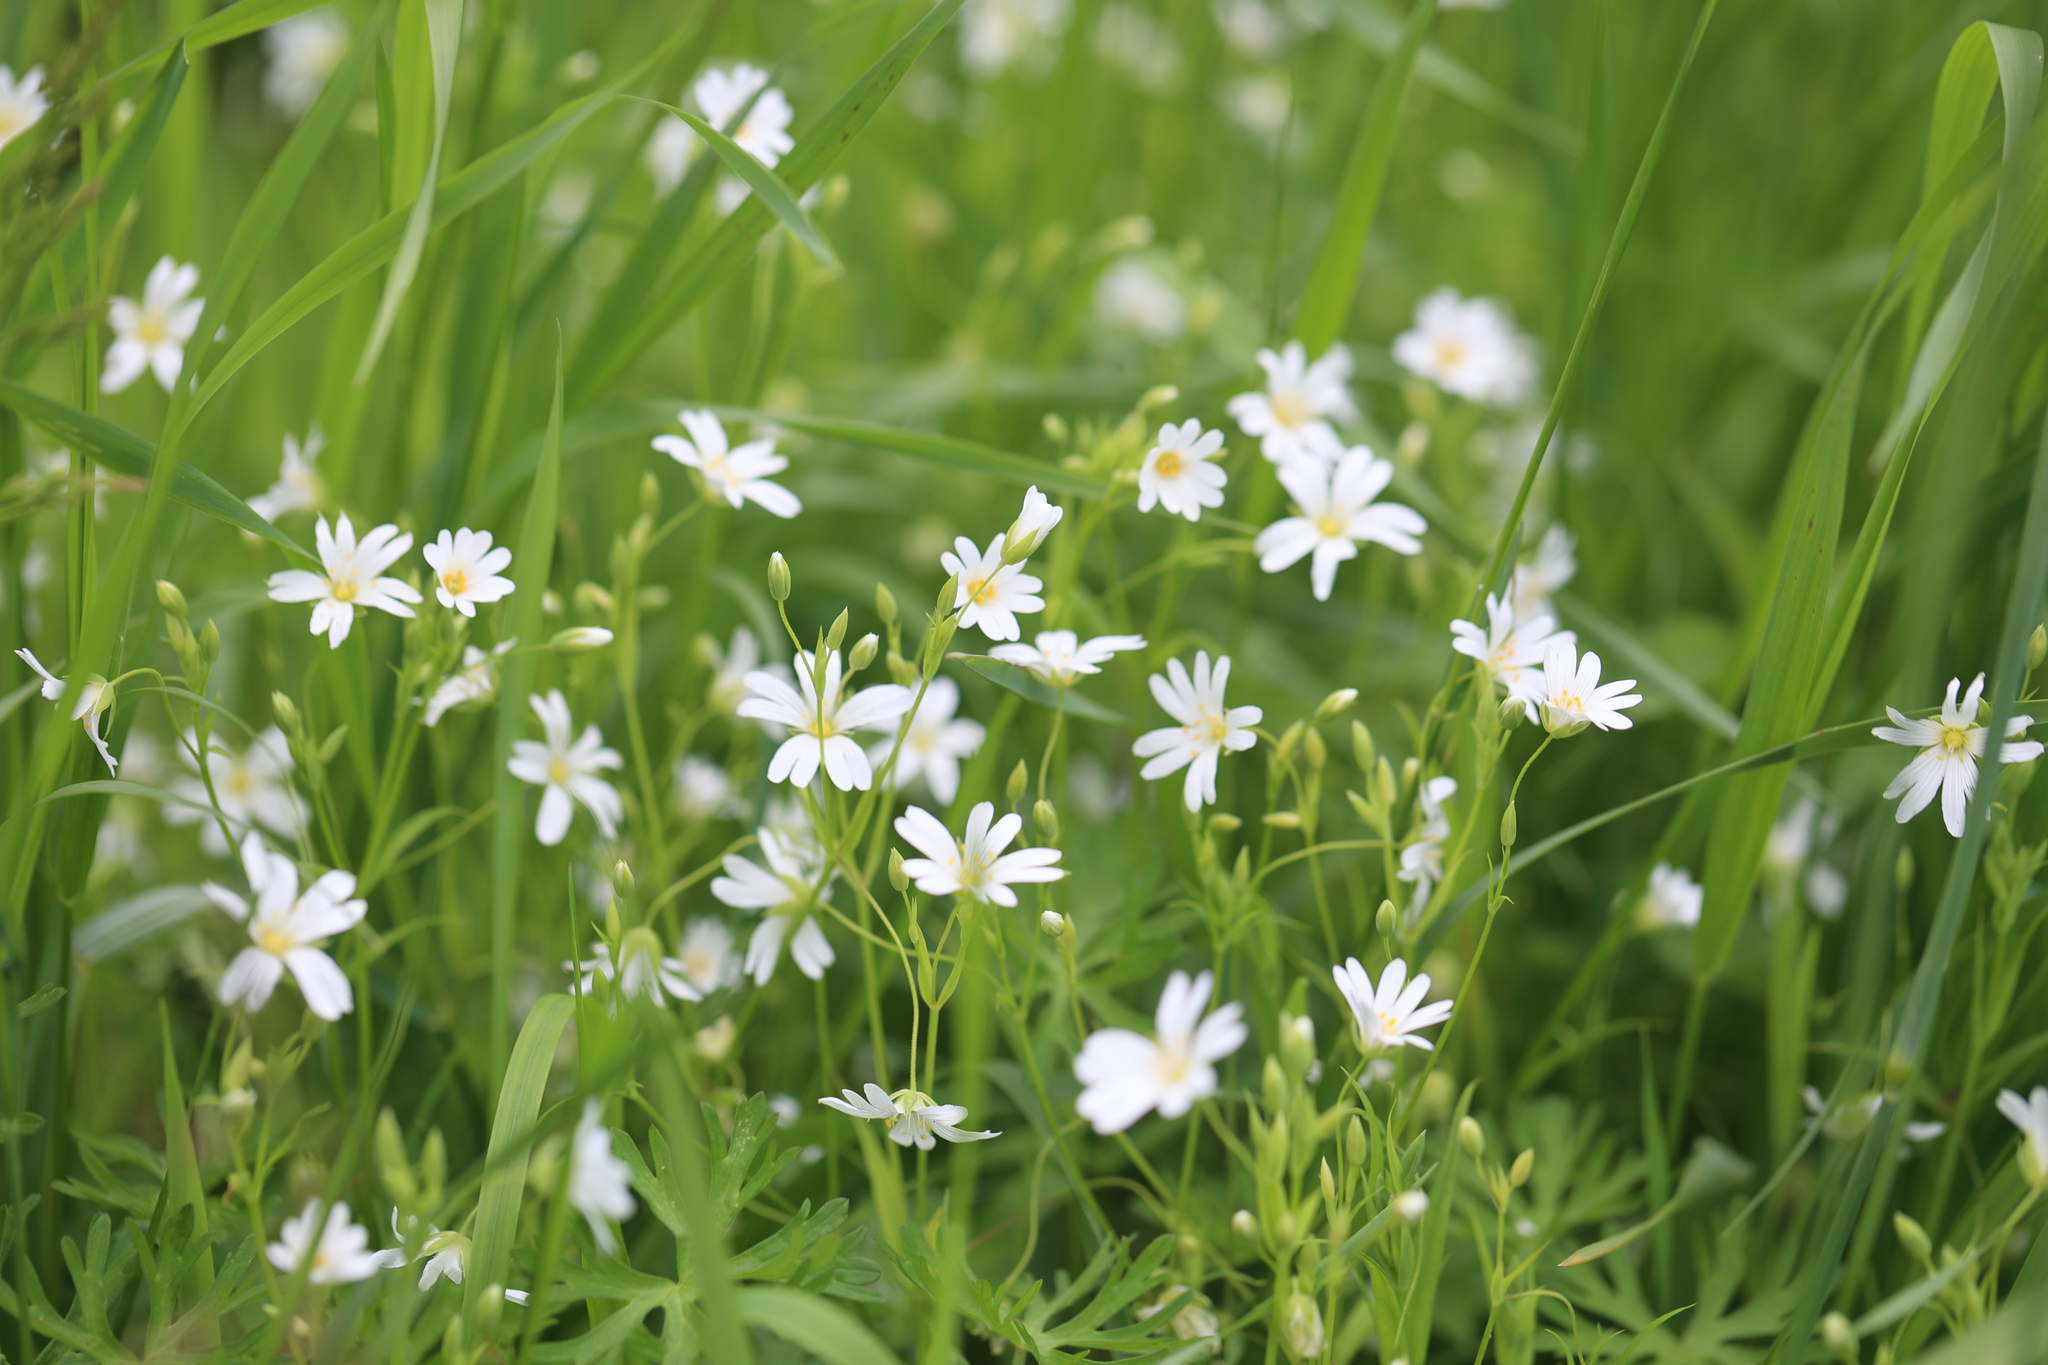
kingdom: Plantae
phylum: Tracheophyta
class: Magnoliopsida
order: Caryophyllales
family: Caryophyllaceae
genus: Rabelera
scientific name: Rabelera holostea
